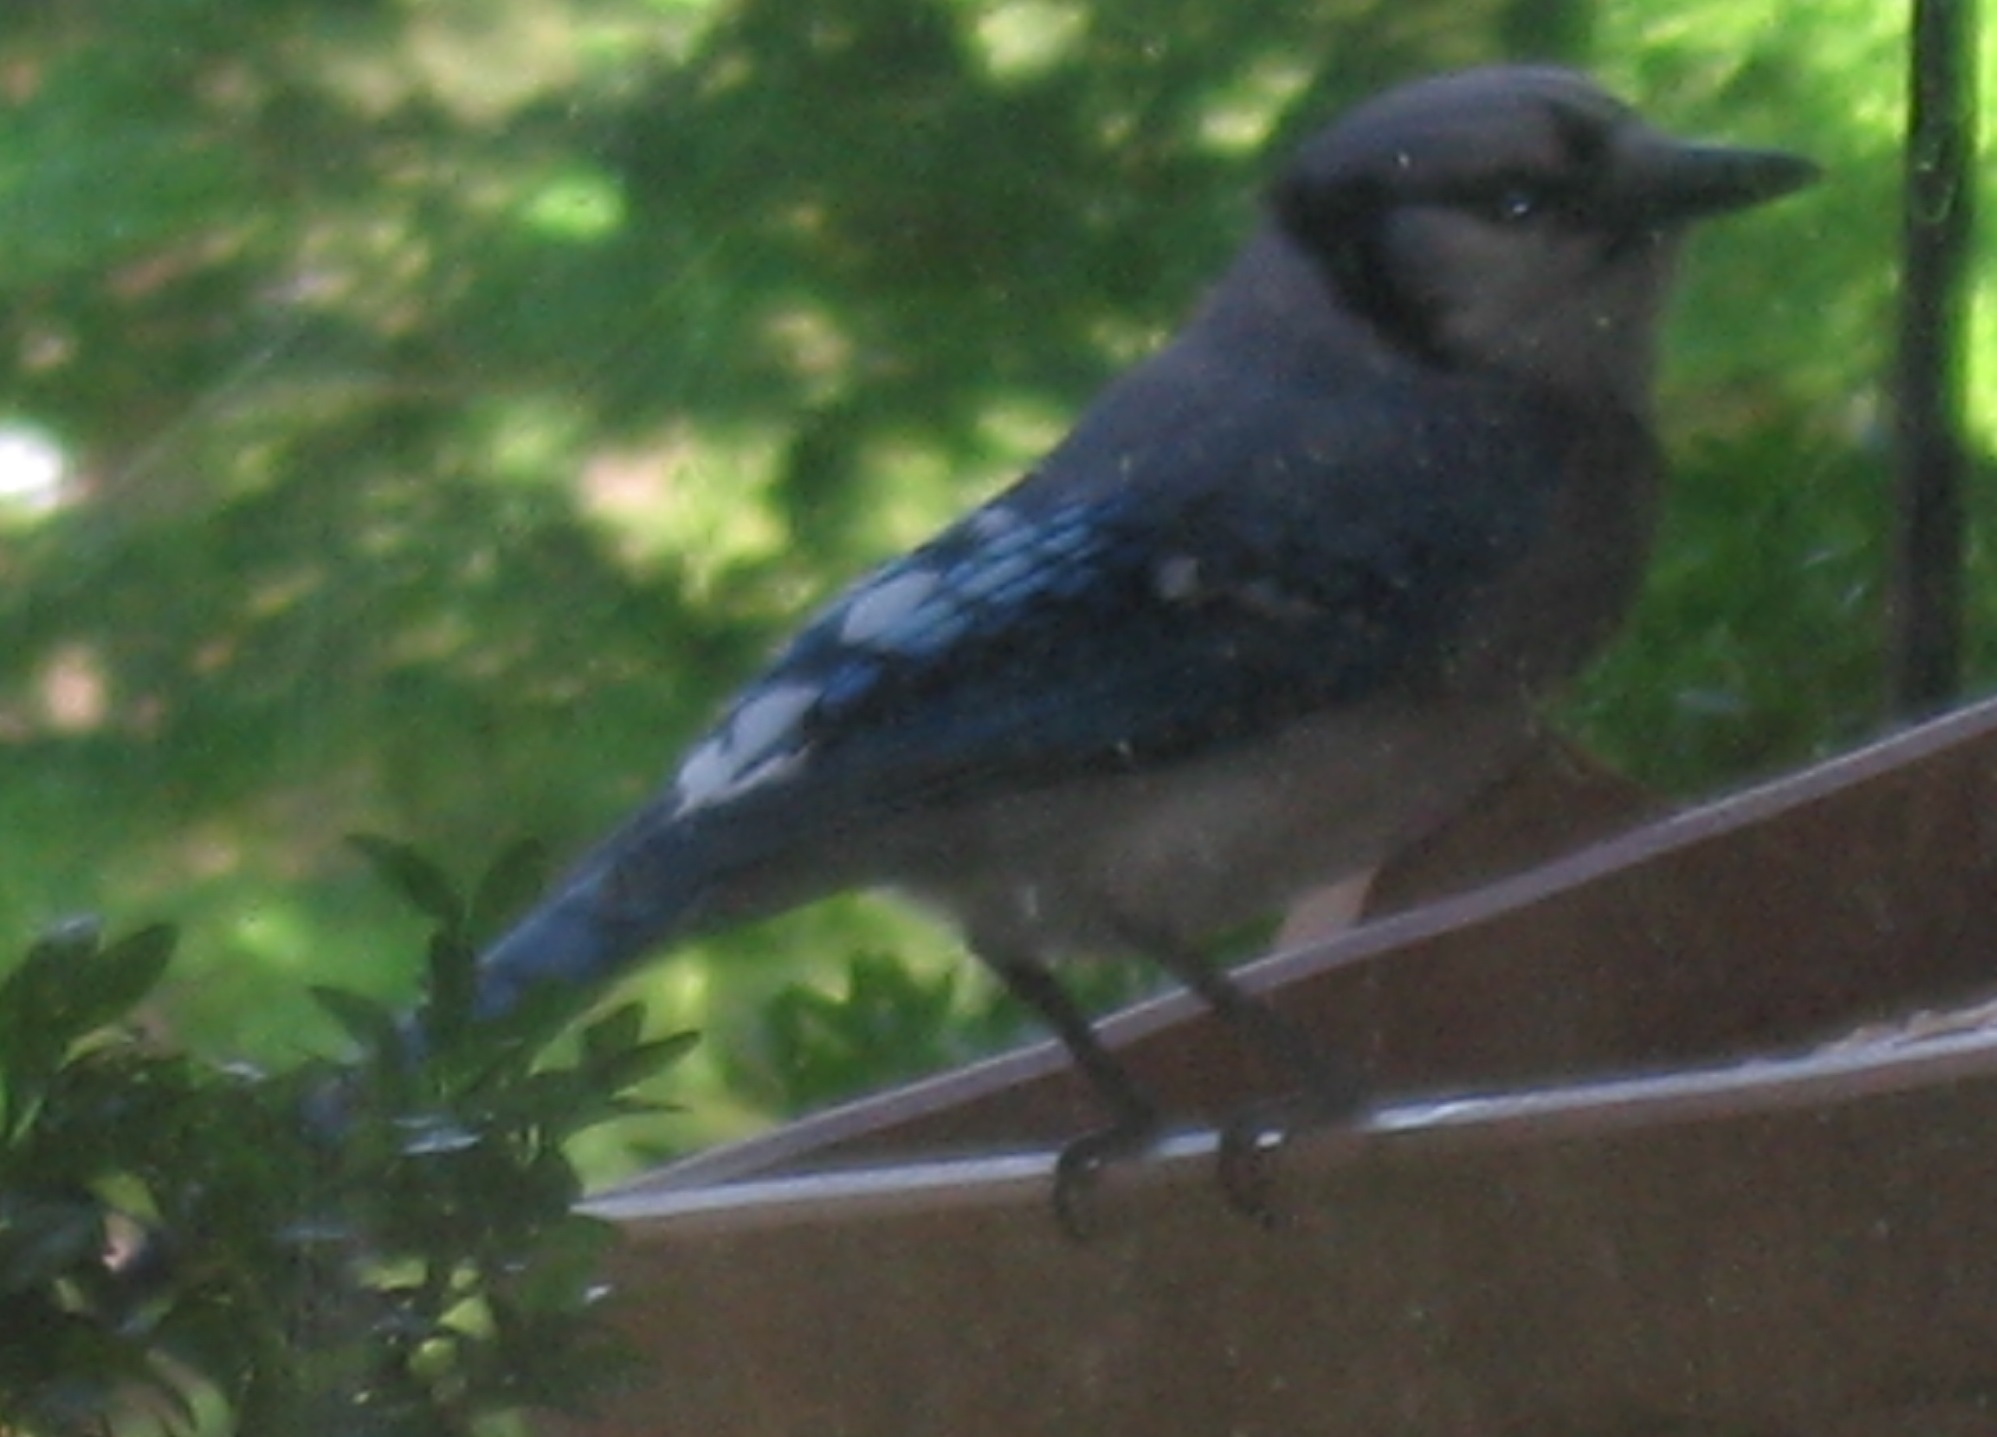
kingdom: Animalia
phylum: Chordata
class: Aves
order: Passeriformes
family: Corvidae
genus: Cyanocitta
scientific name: Cyanocitta cristata
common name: Blue jay
